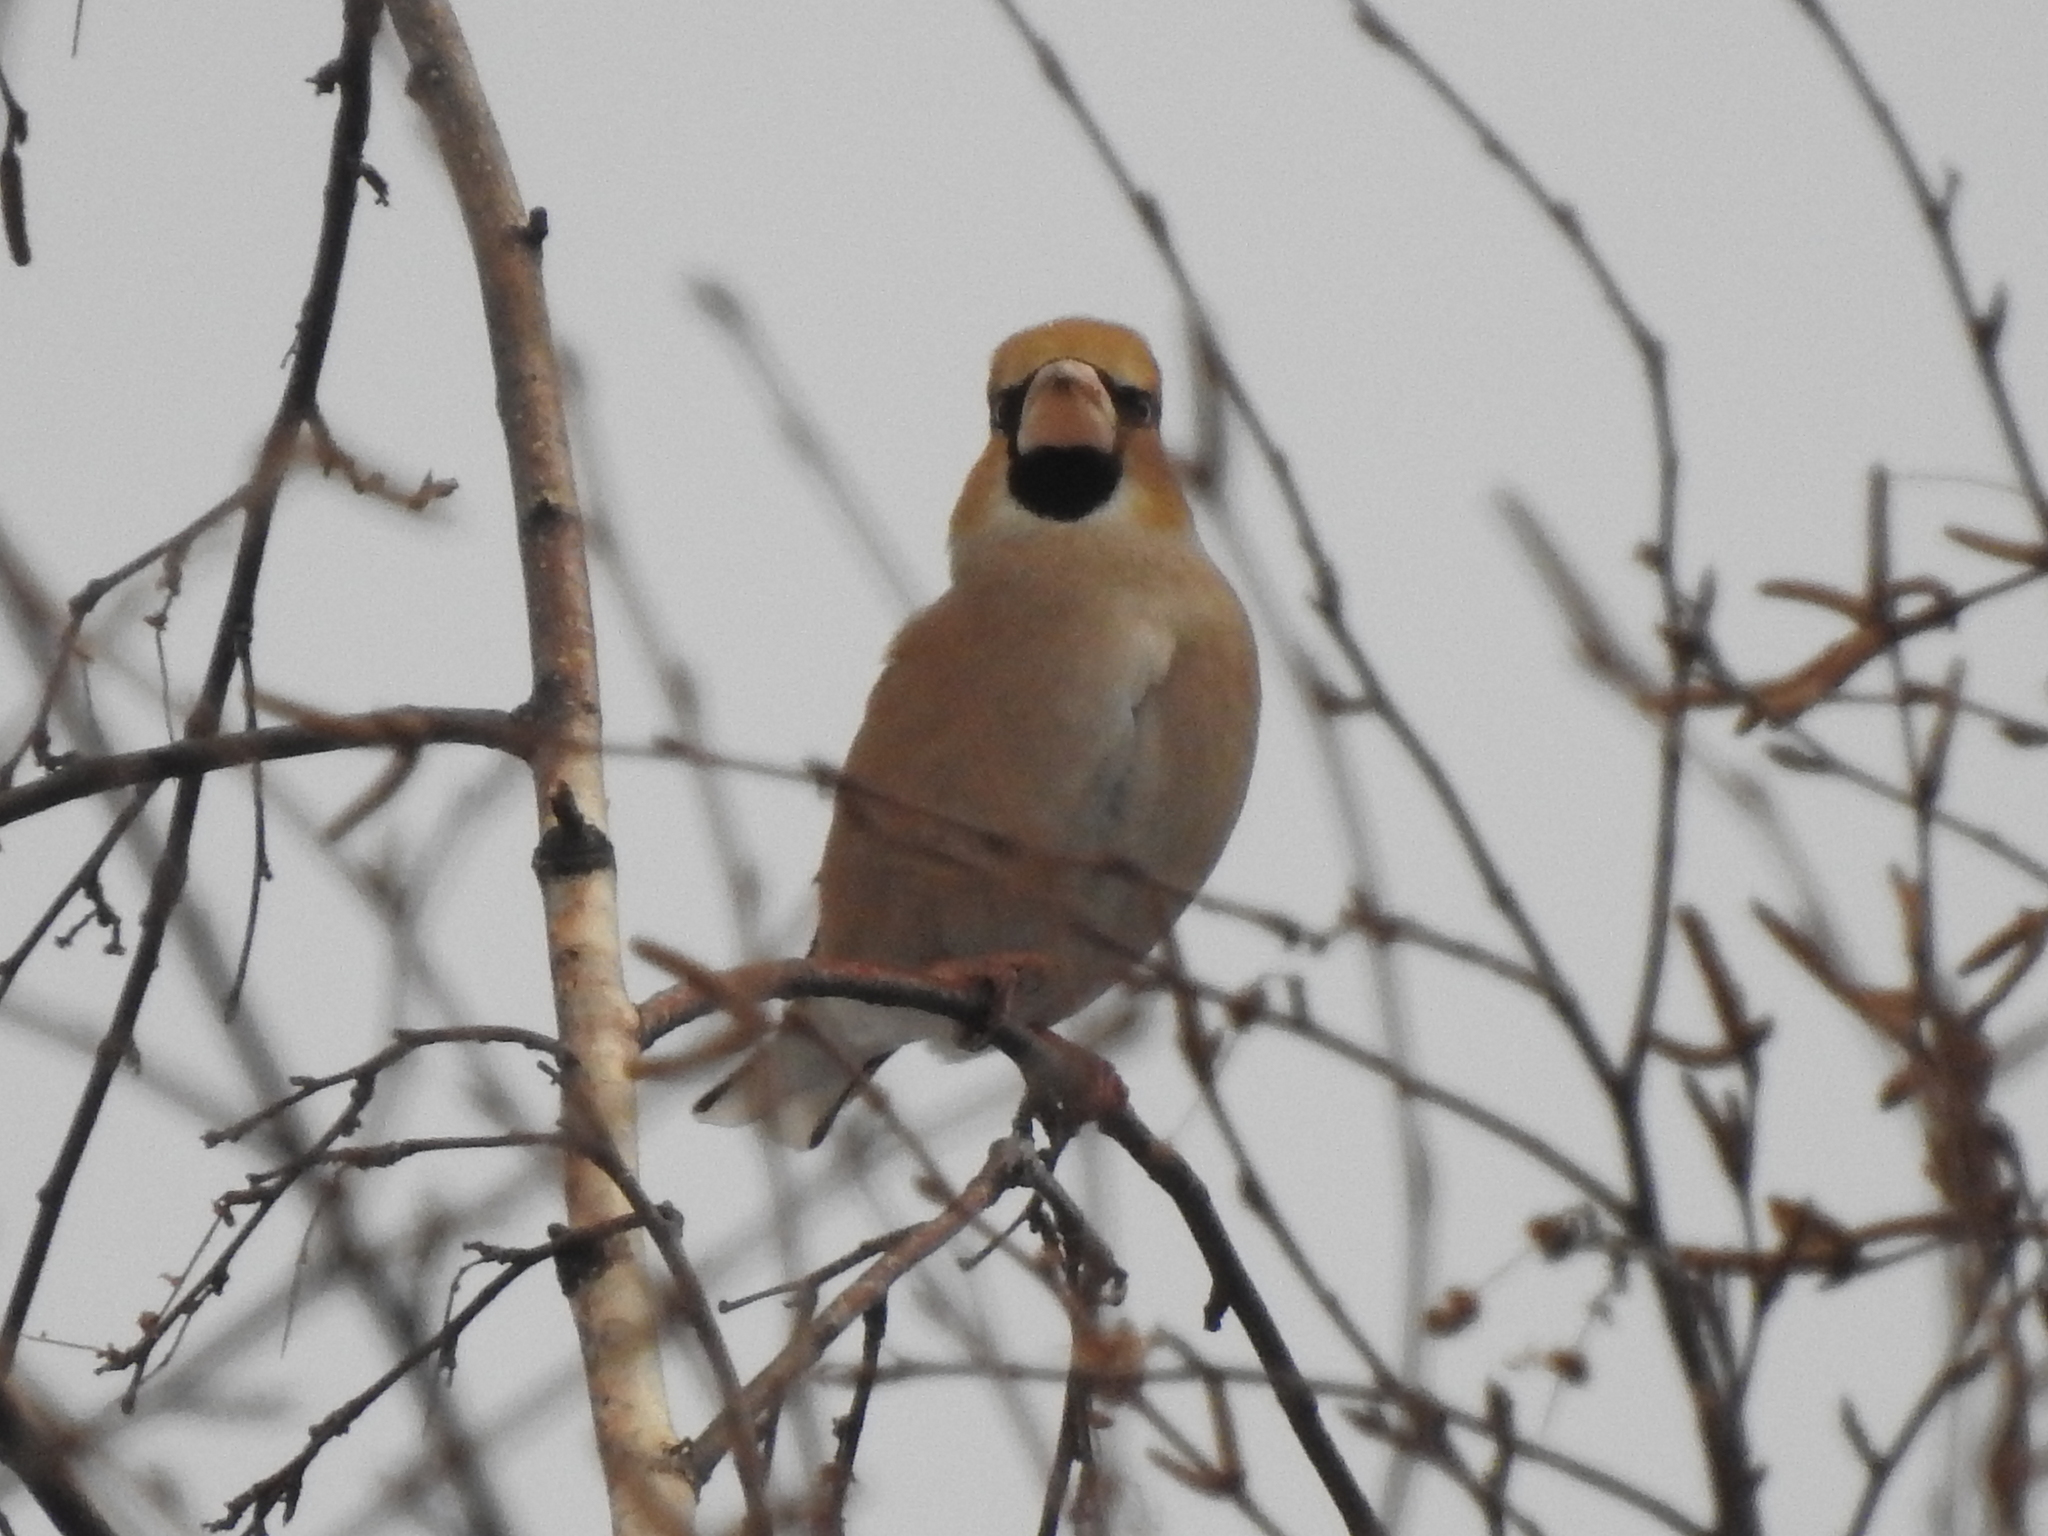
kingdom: Animalia
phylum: Chordata
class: Aves
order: Passeriformes
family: Fringillidae
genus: Coccothraustes
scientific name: Coccothraustes coccothraustes
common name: Hawfinch
